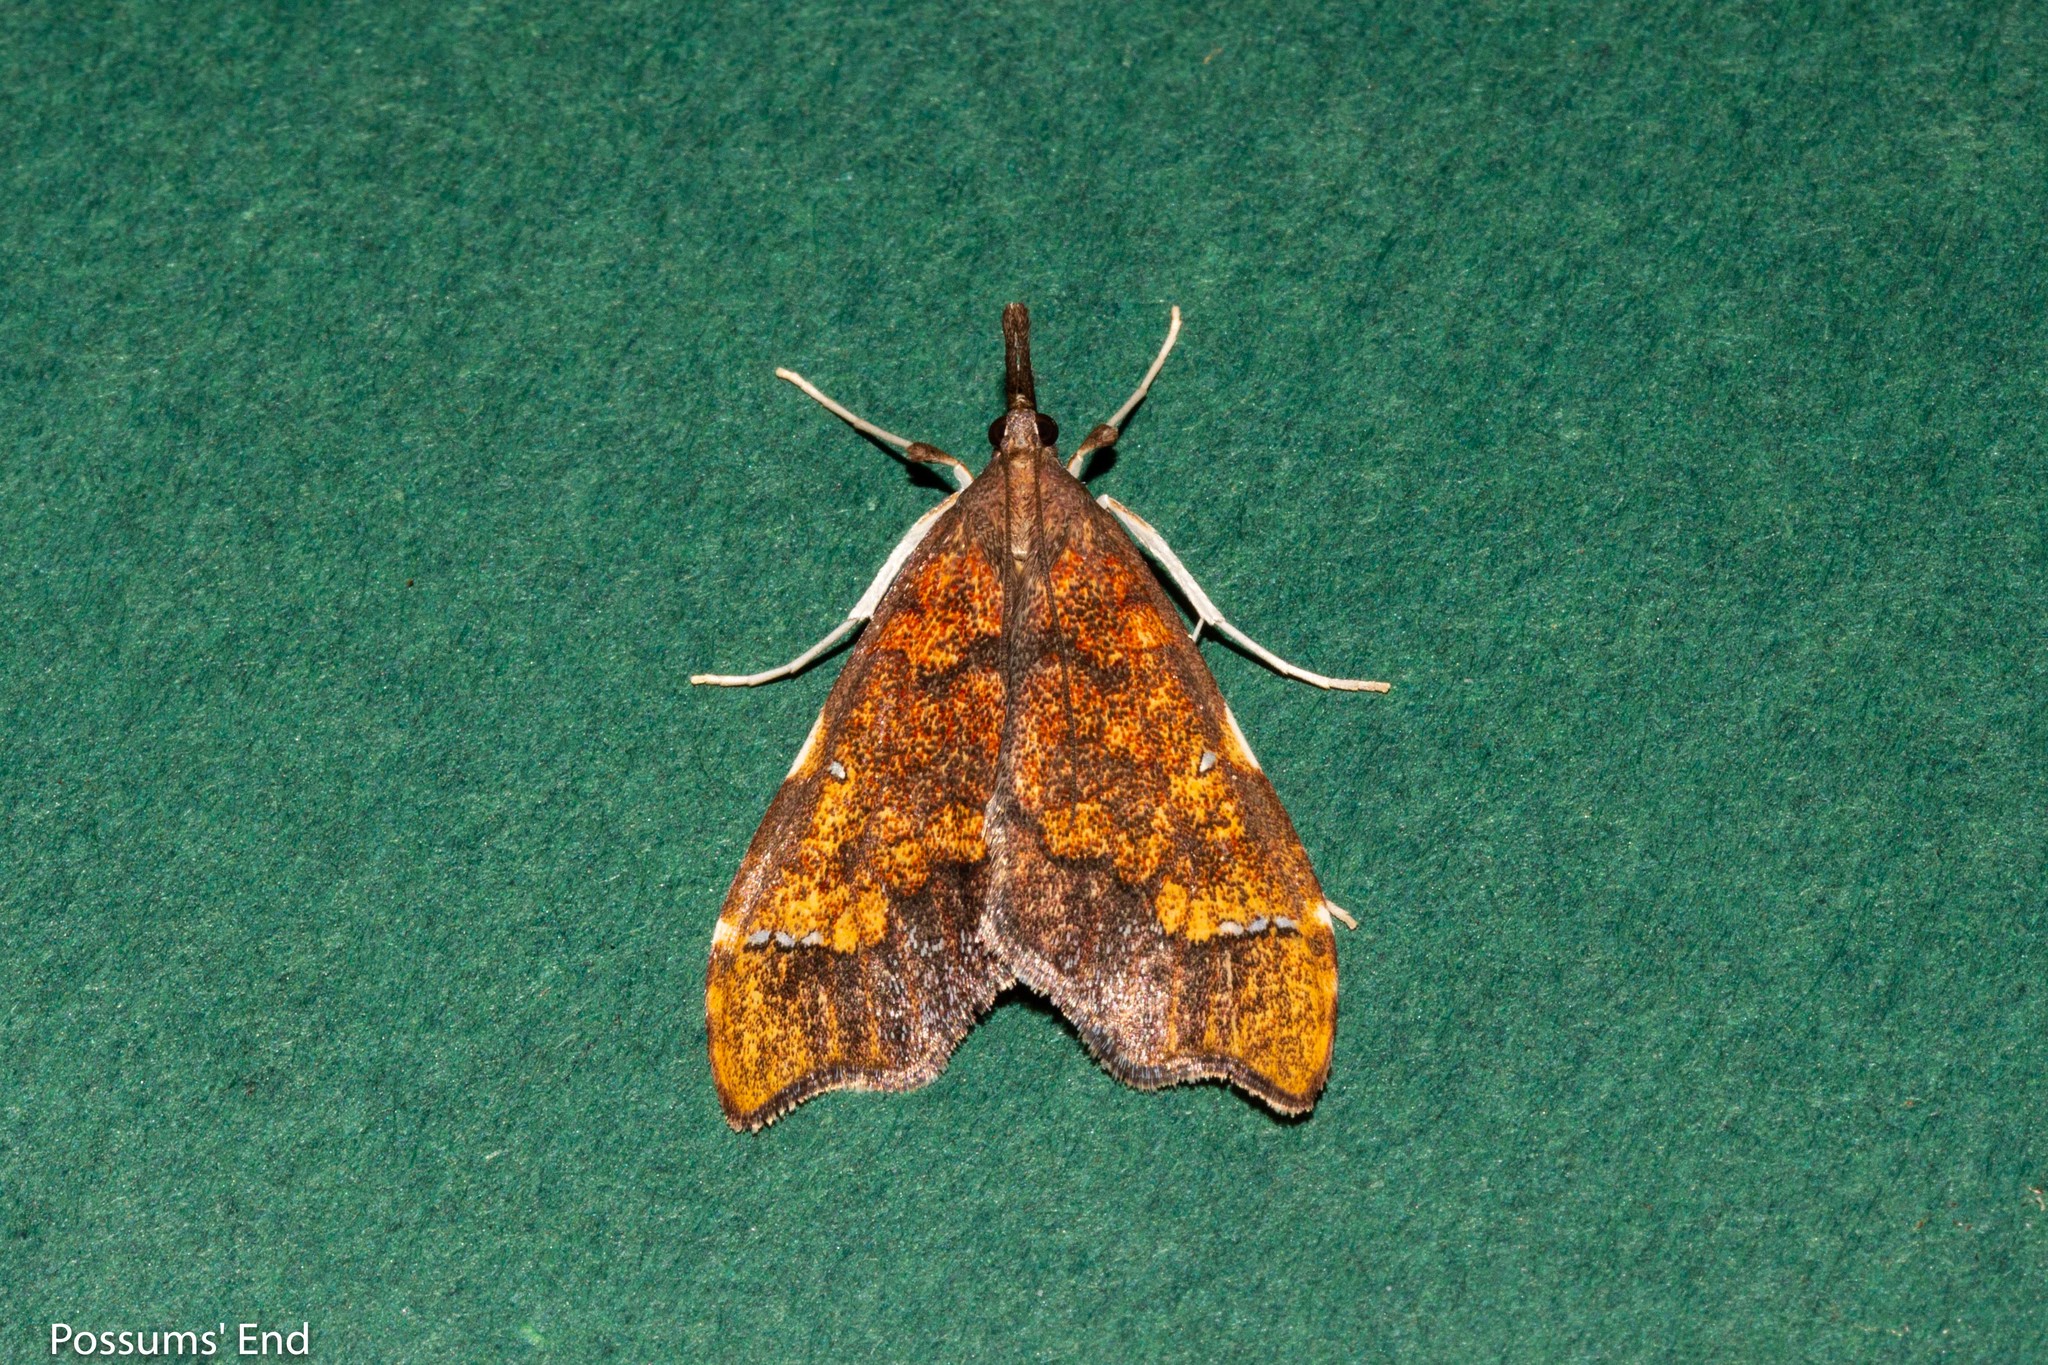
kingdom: Animalia
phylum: Arthropoda
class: Insecta
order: Lepidoptera
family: Crambidae
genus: Deana
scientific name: Deana hybreasalis
